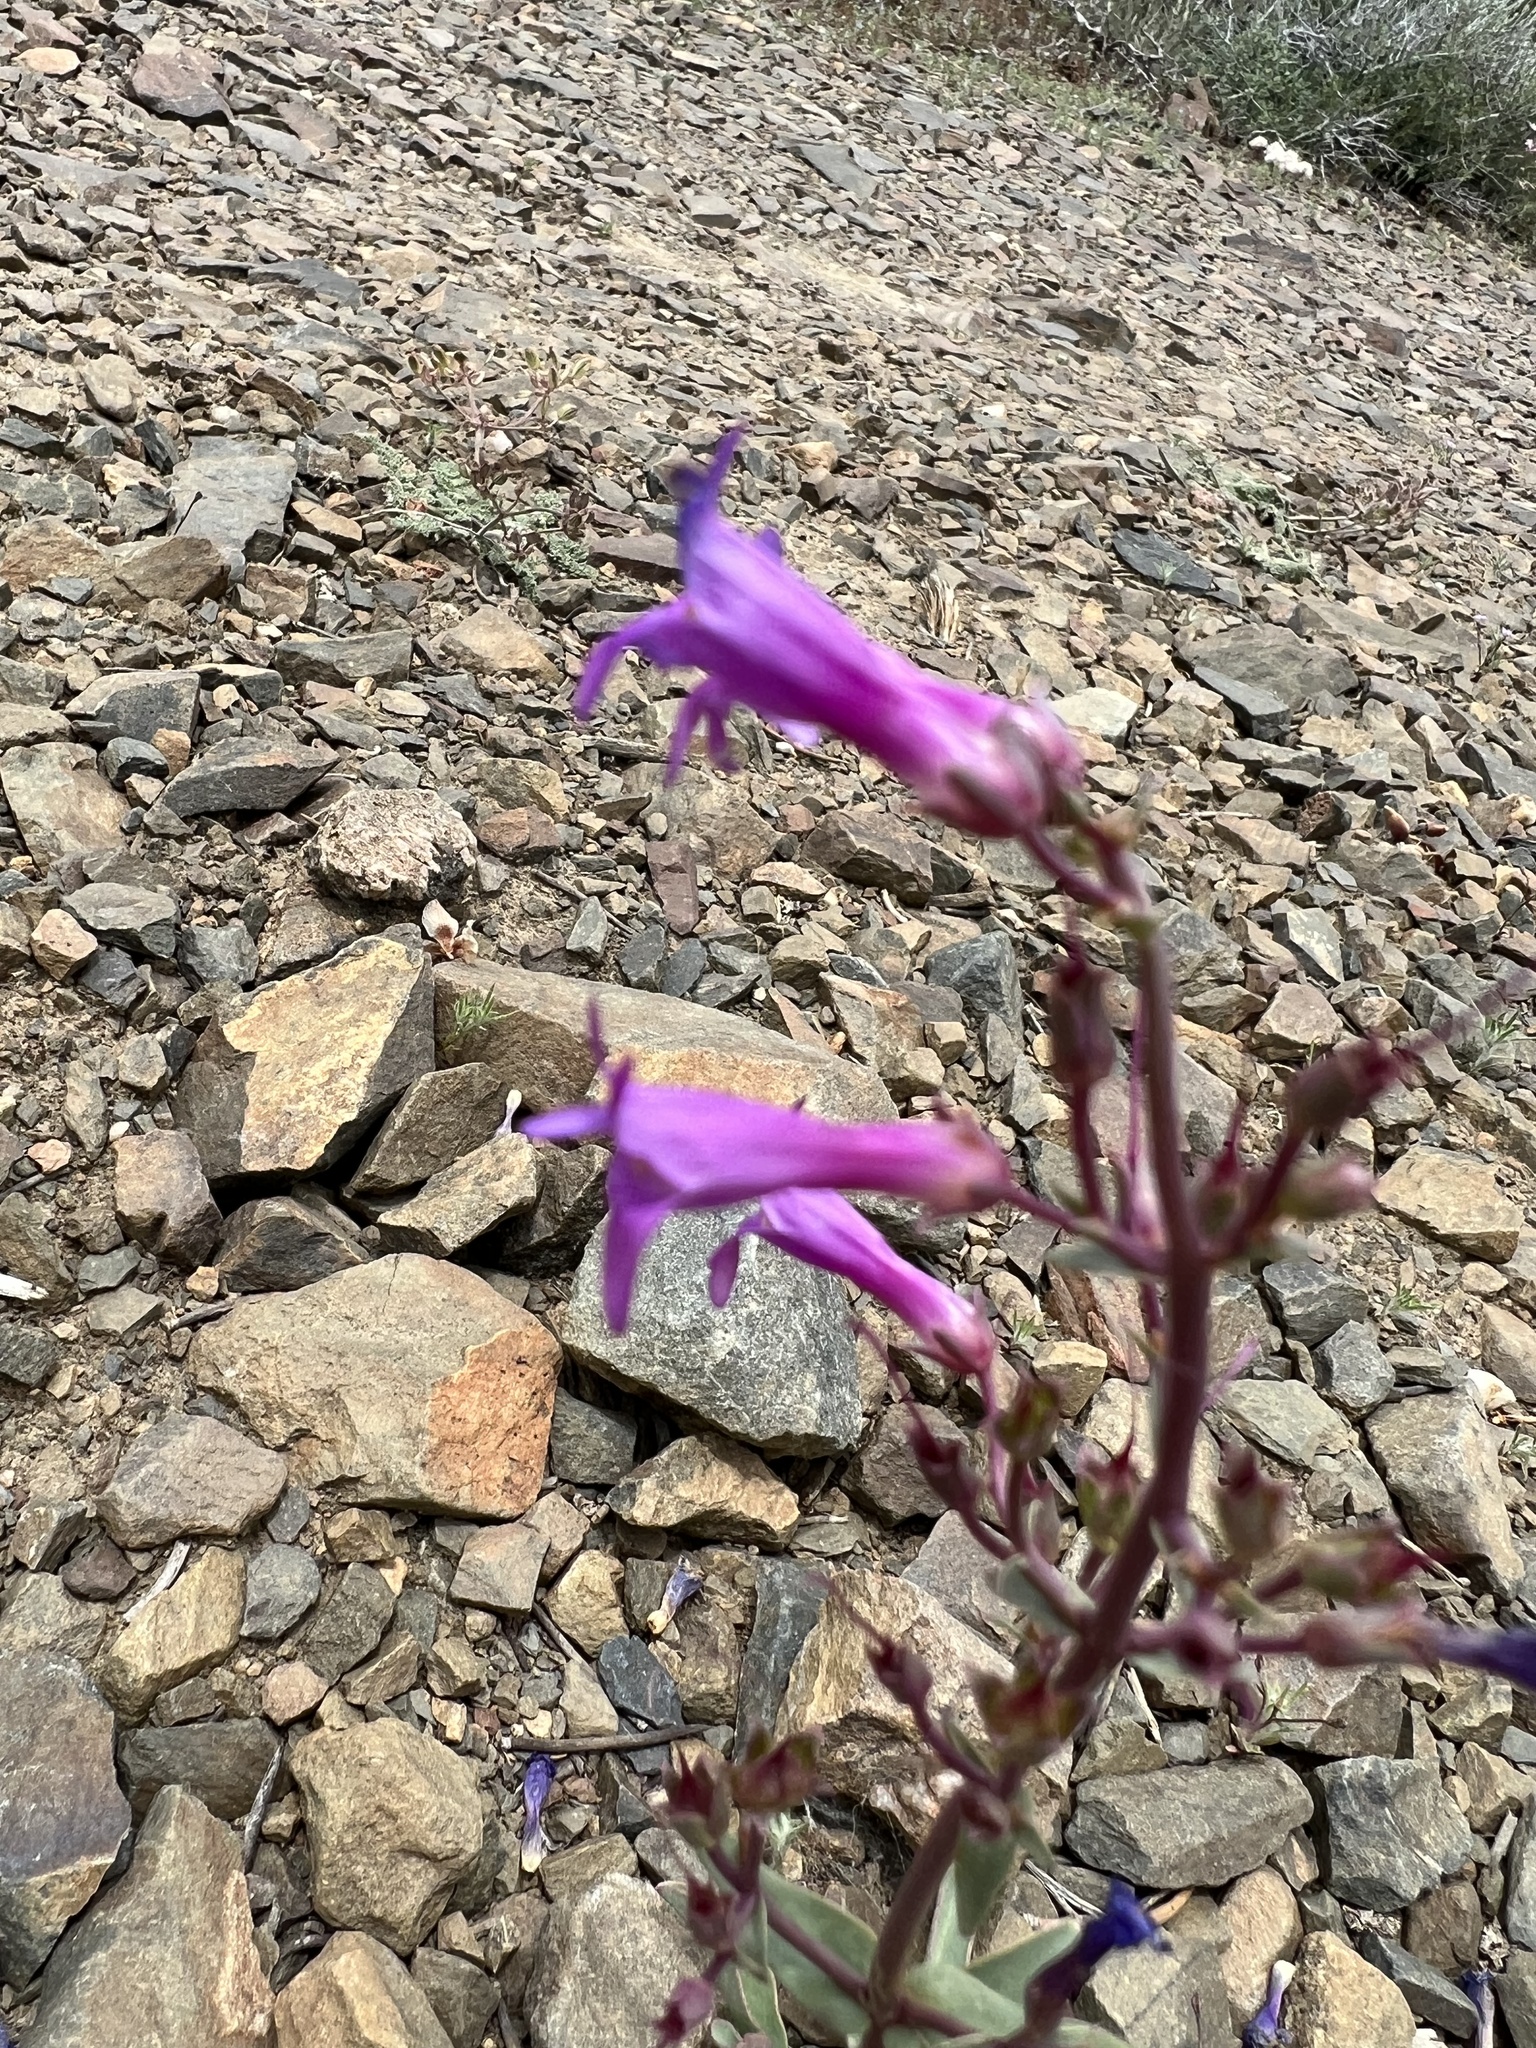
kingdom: Plantae
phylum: Tracheophyta
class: Magnoliopsida
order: Lamiales
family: Plantaginaceae
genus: Penstemon
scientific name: Penstemon patens
